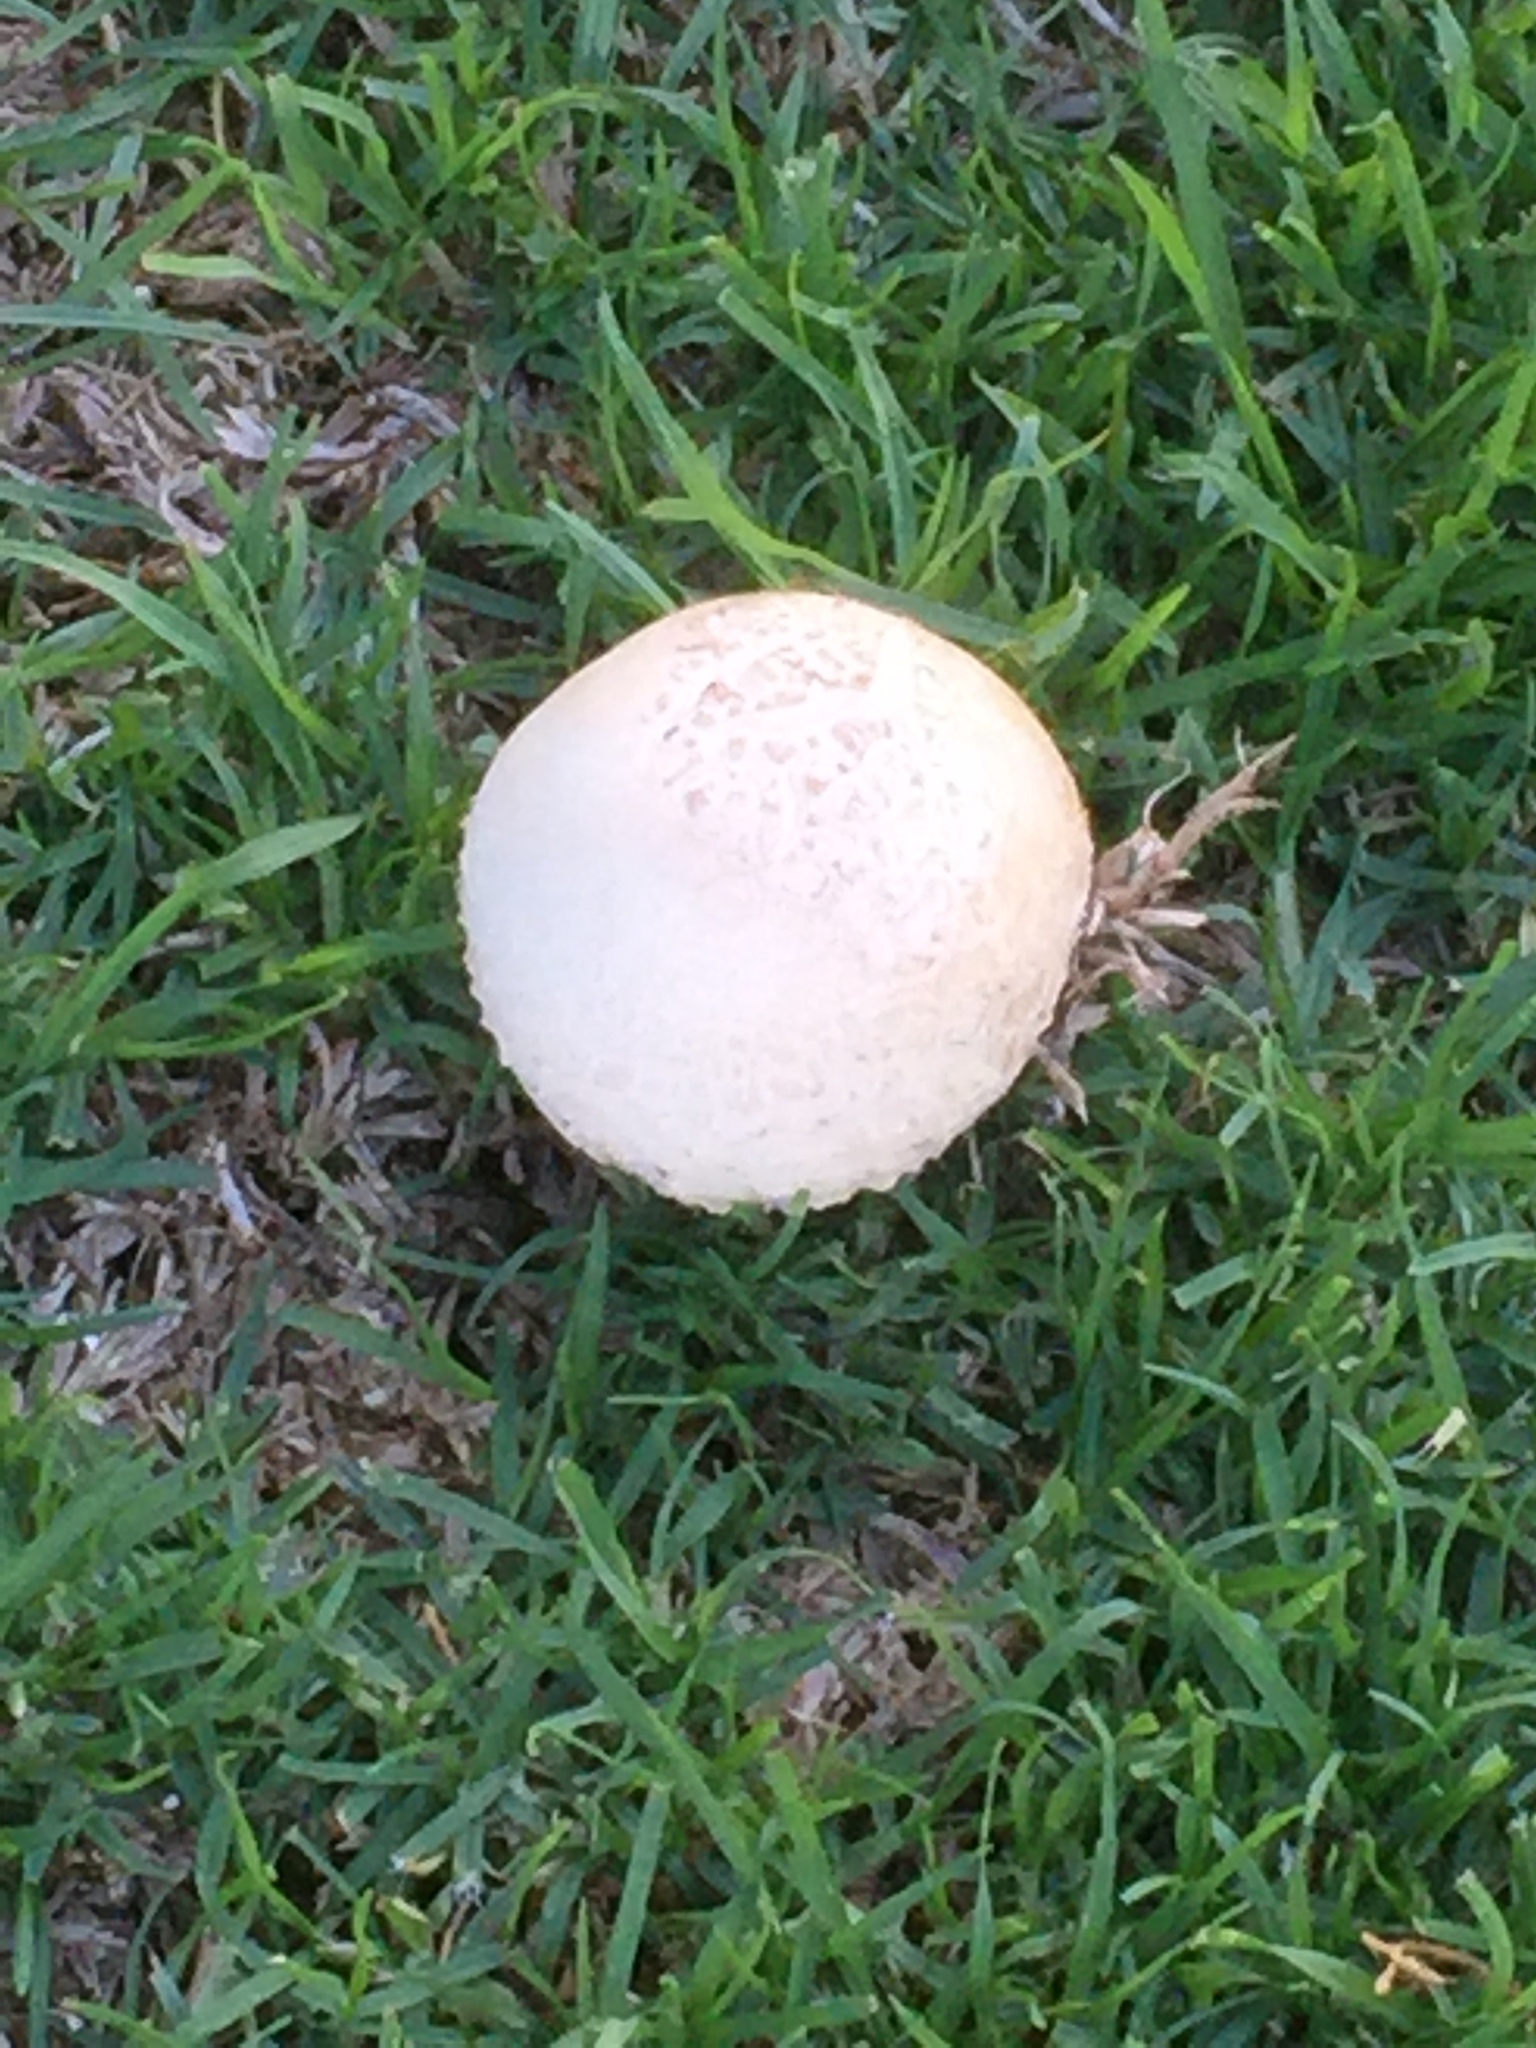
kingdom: Fungi
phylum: Basidiomycota
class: Agaricomycetes
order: Agaricales
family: Amanitaceae
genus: Amanita
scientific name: Amanita foetidissima
